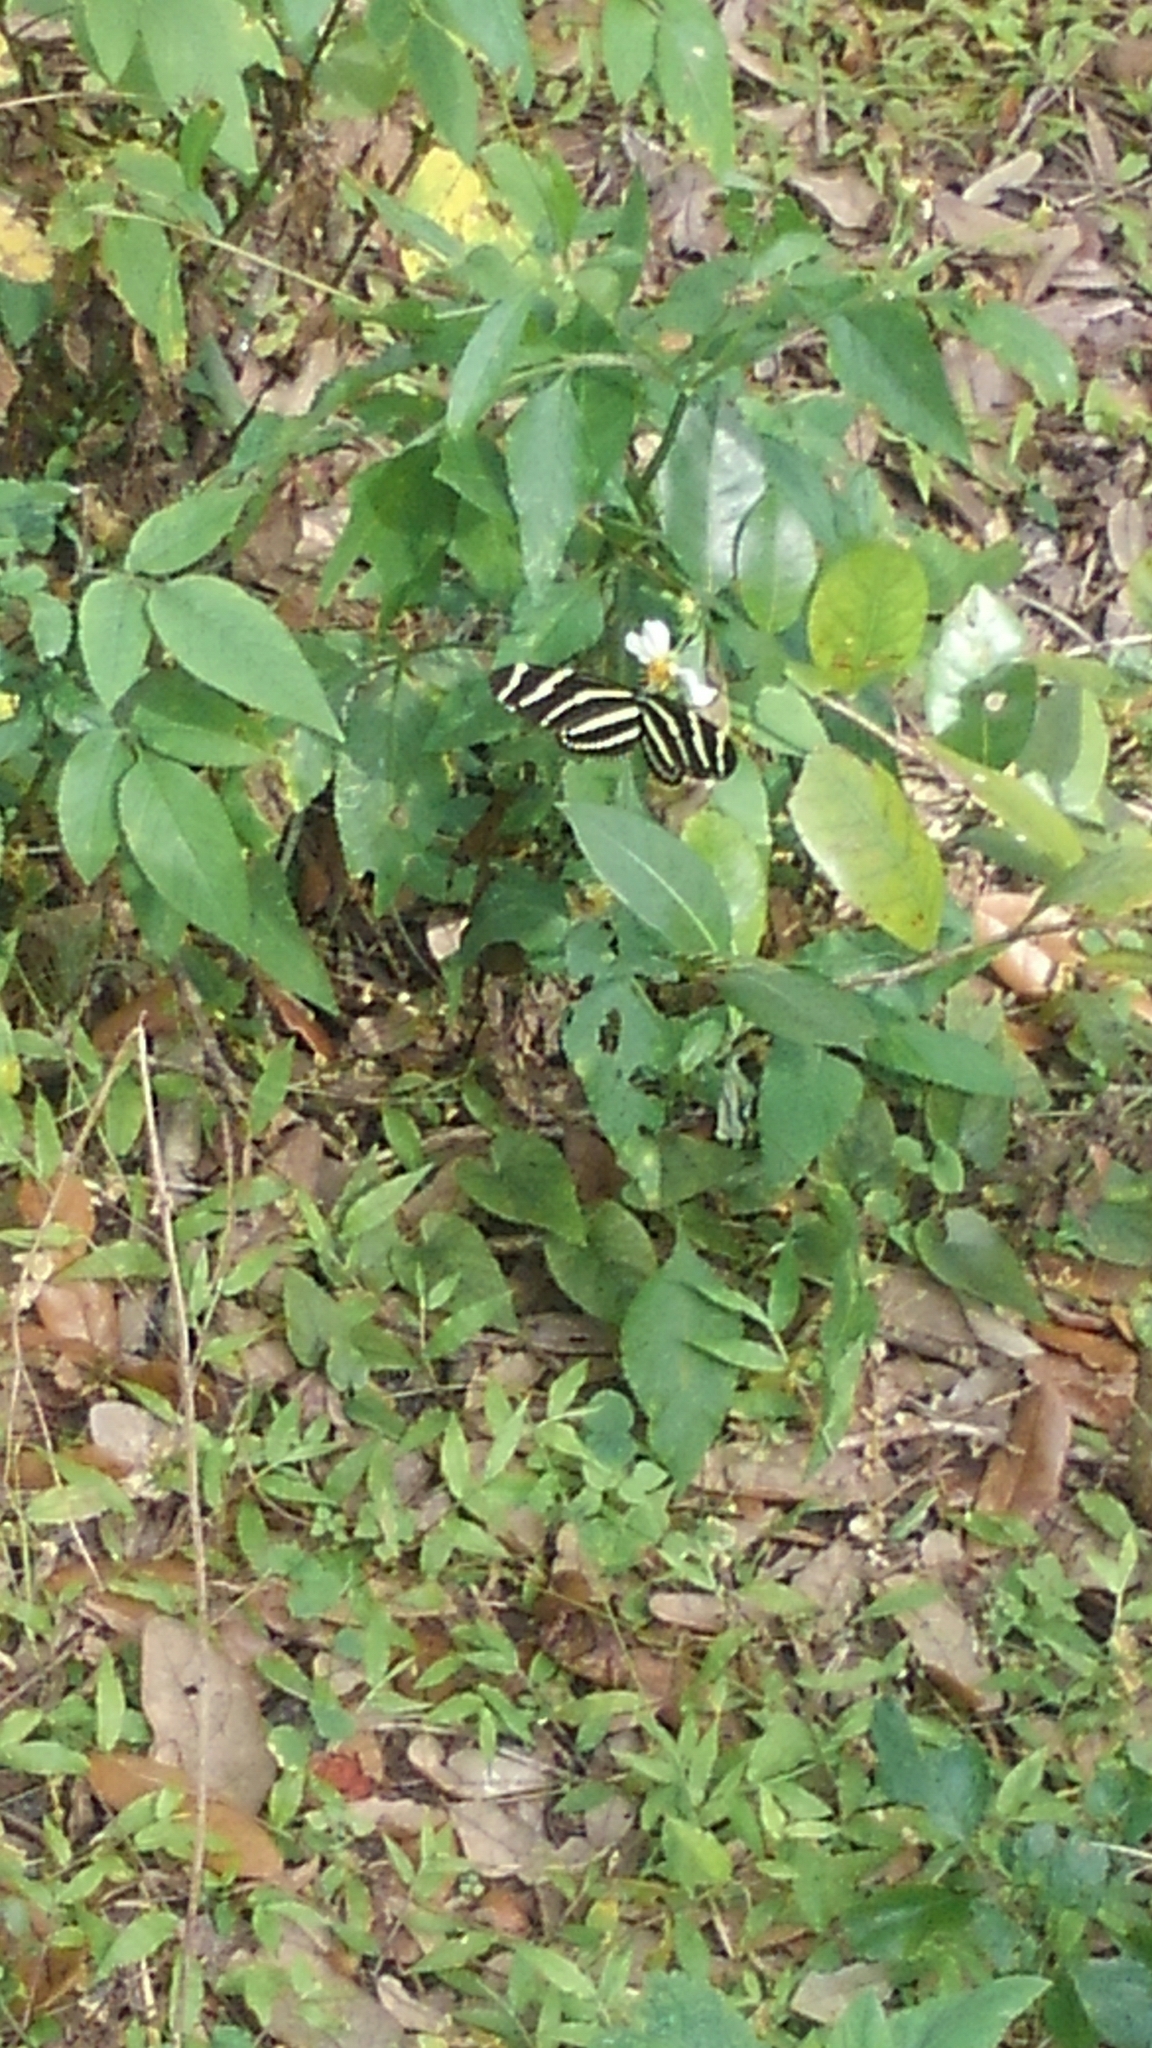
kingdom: Animalia
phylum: Arthropoda
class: Insecta
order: Lepidoptera
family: Nymphalidae
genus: Heliconius
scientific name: Heliconius charithonia
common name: Zebra long wing
